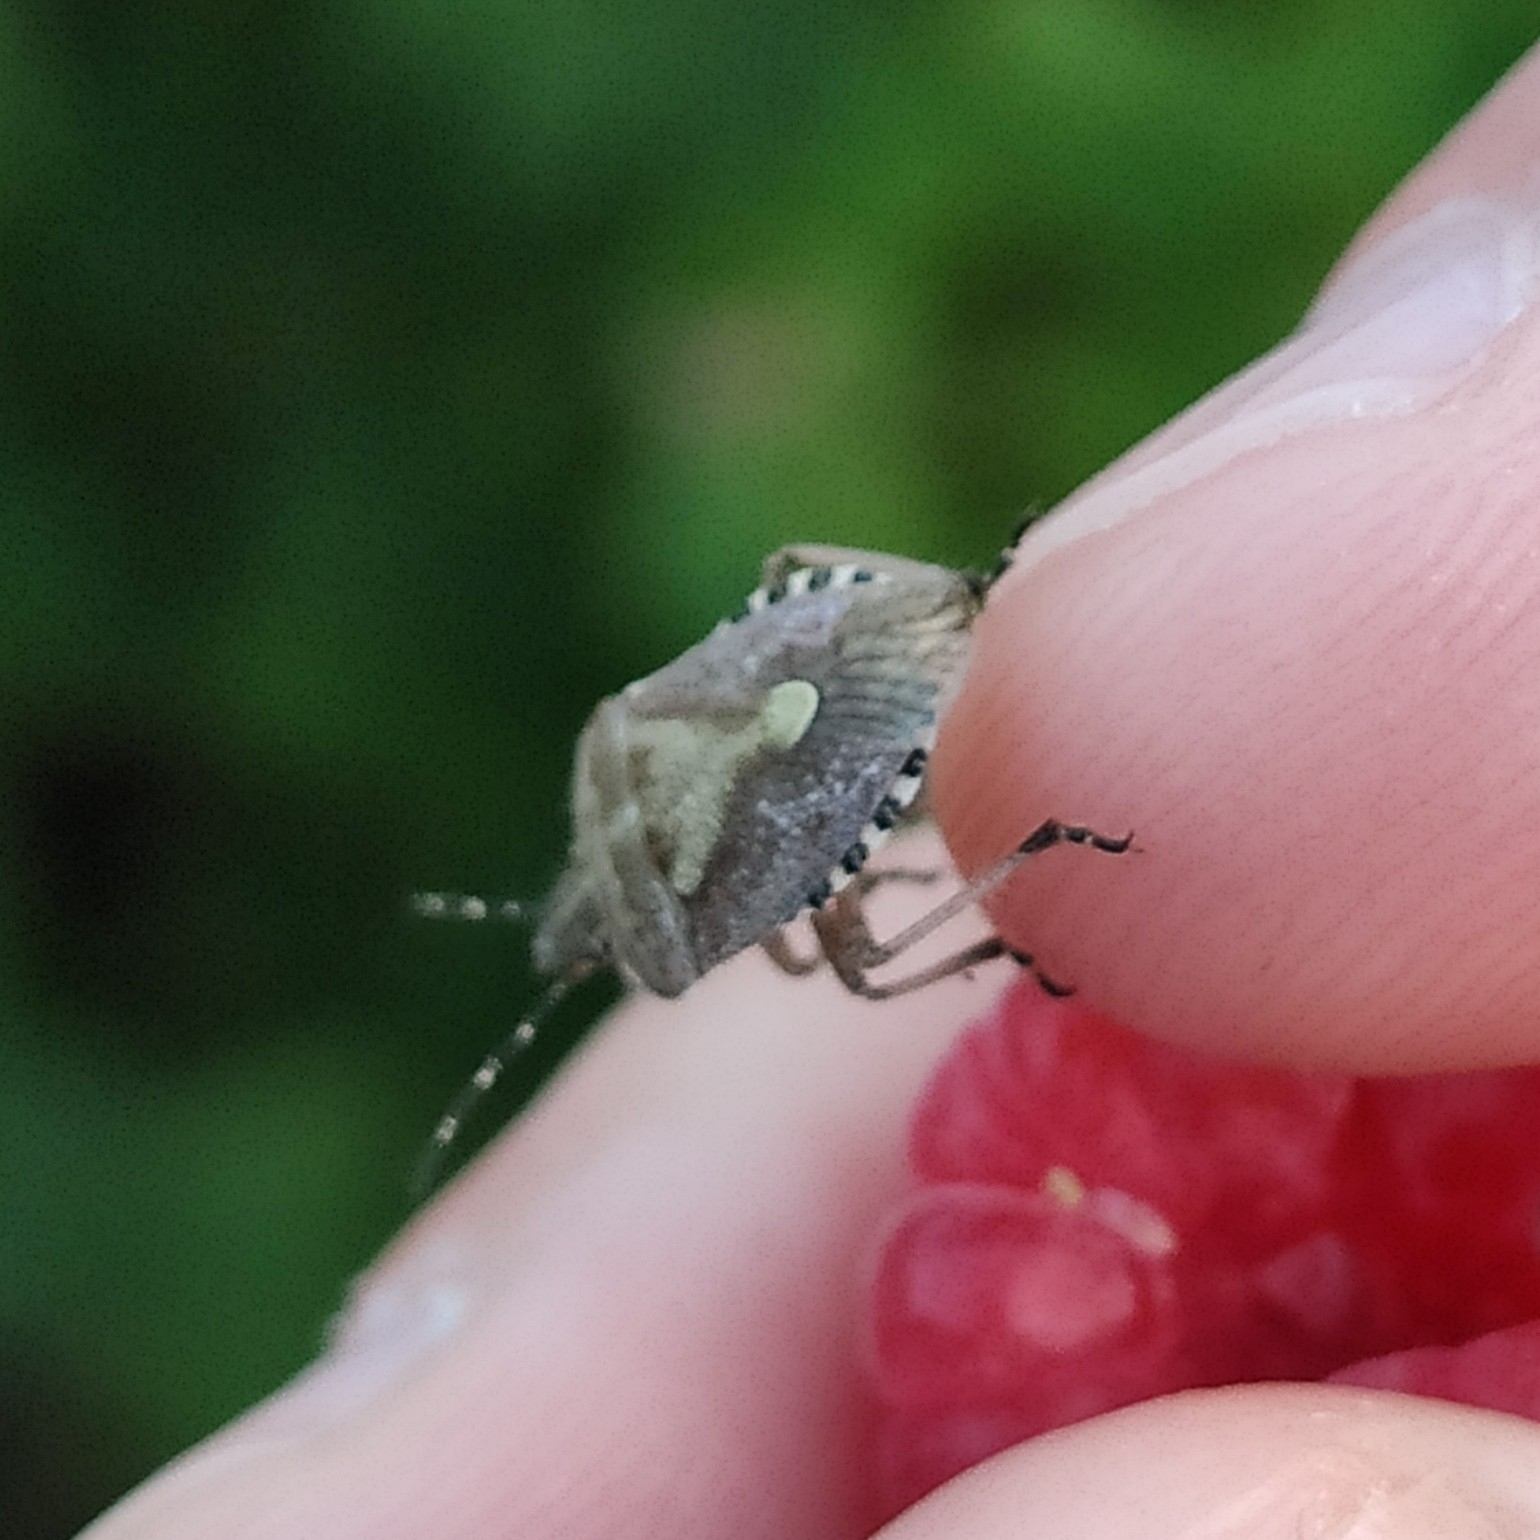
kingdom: Animalia
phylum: Arthropoda
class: Insecta
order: Hemiptera
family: Pentatomidae
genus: Dolycoris
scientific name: Dolycoris baccarum
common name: Sloe bug
